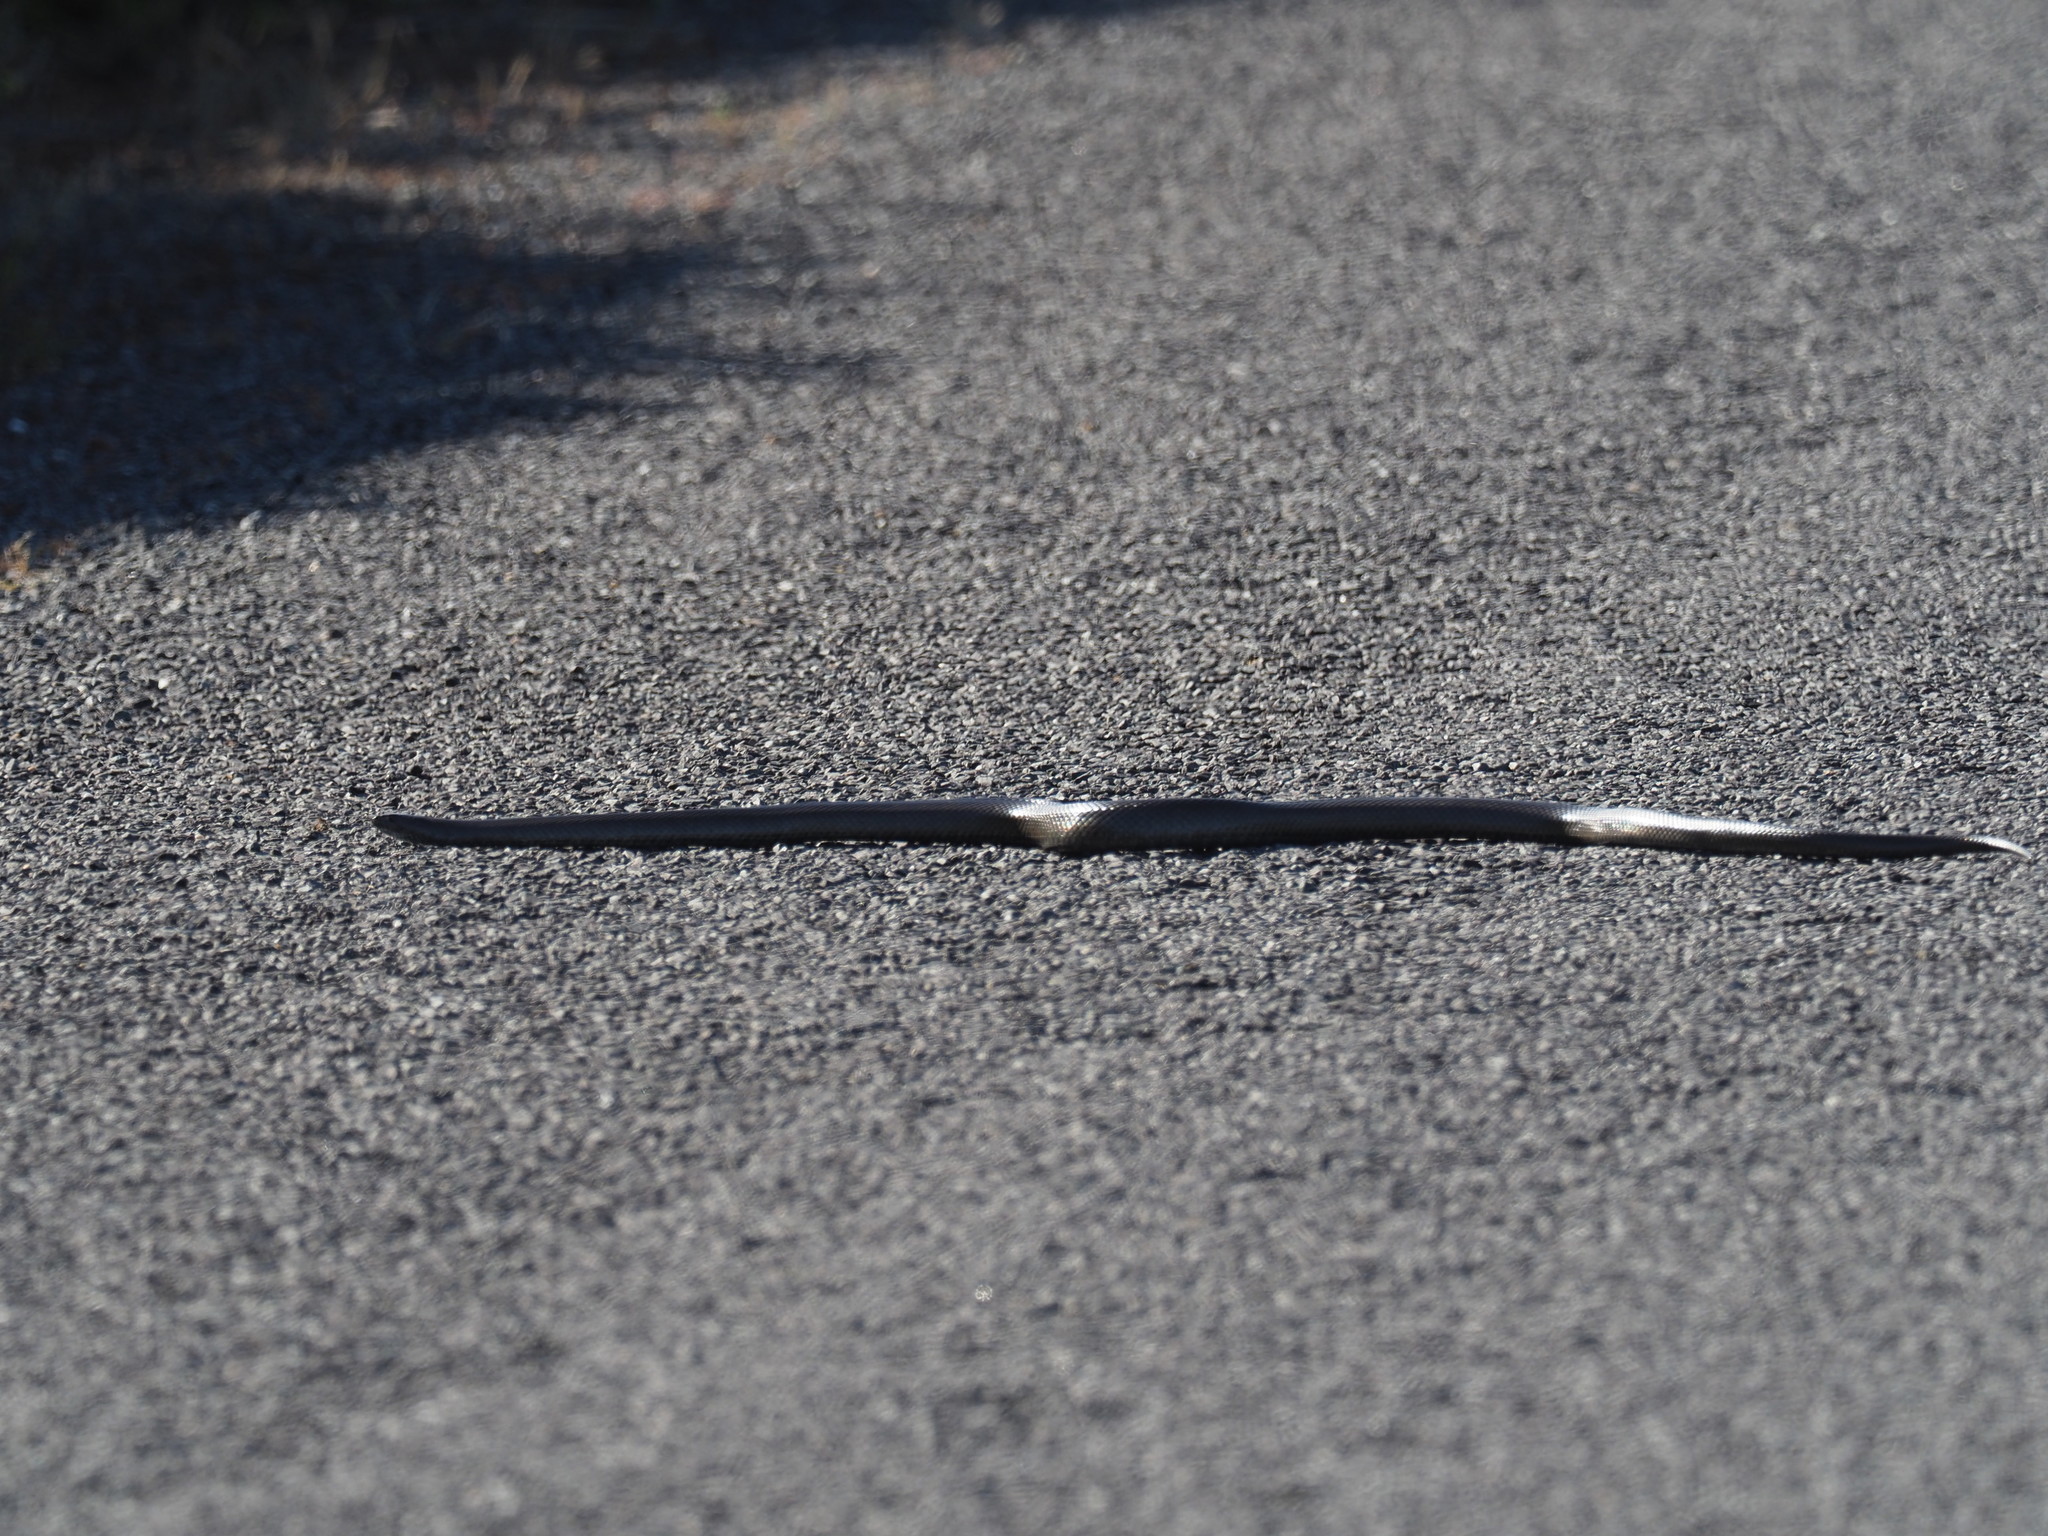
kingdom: Animalia
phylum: Chordata
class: Squamata
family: Pseudaspididae
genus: Pseudaspis
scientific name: Pseudaspis cana
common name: Mole snake
